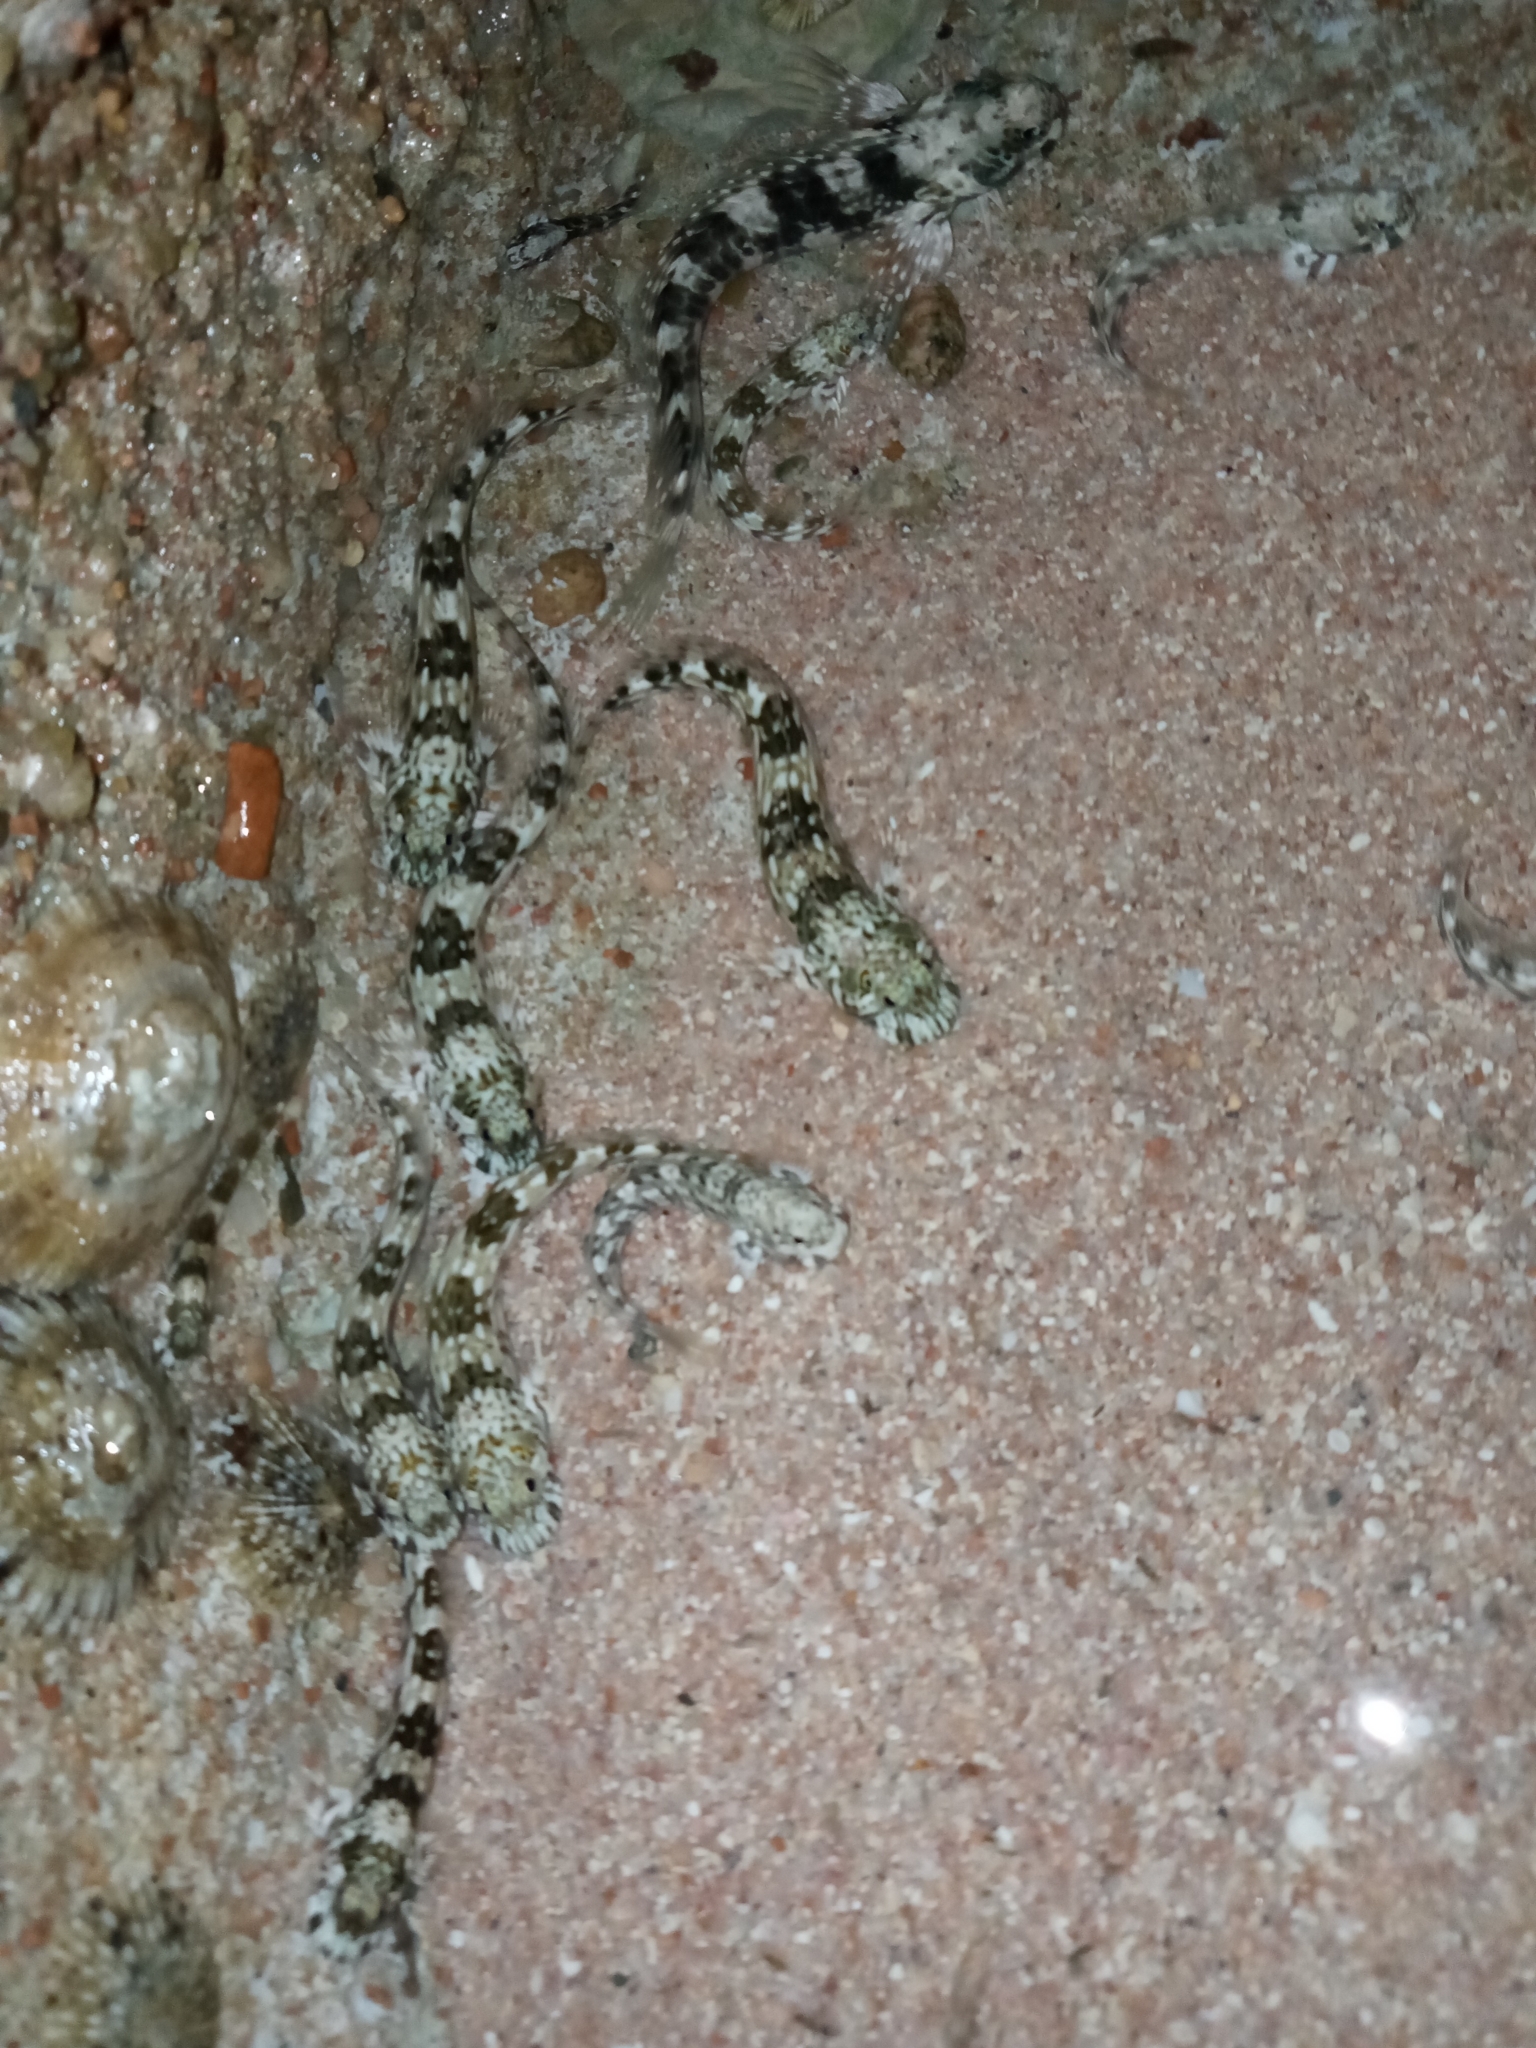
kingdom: Animalia
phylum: Chordata
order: Perciformes
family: Blenniidae
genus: Istiblennius
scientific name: Istiblennius unicolor
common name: Pallid rockskipper
